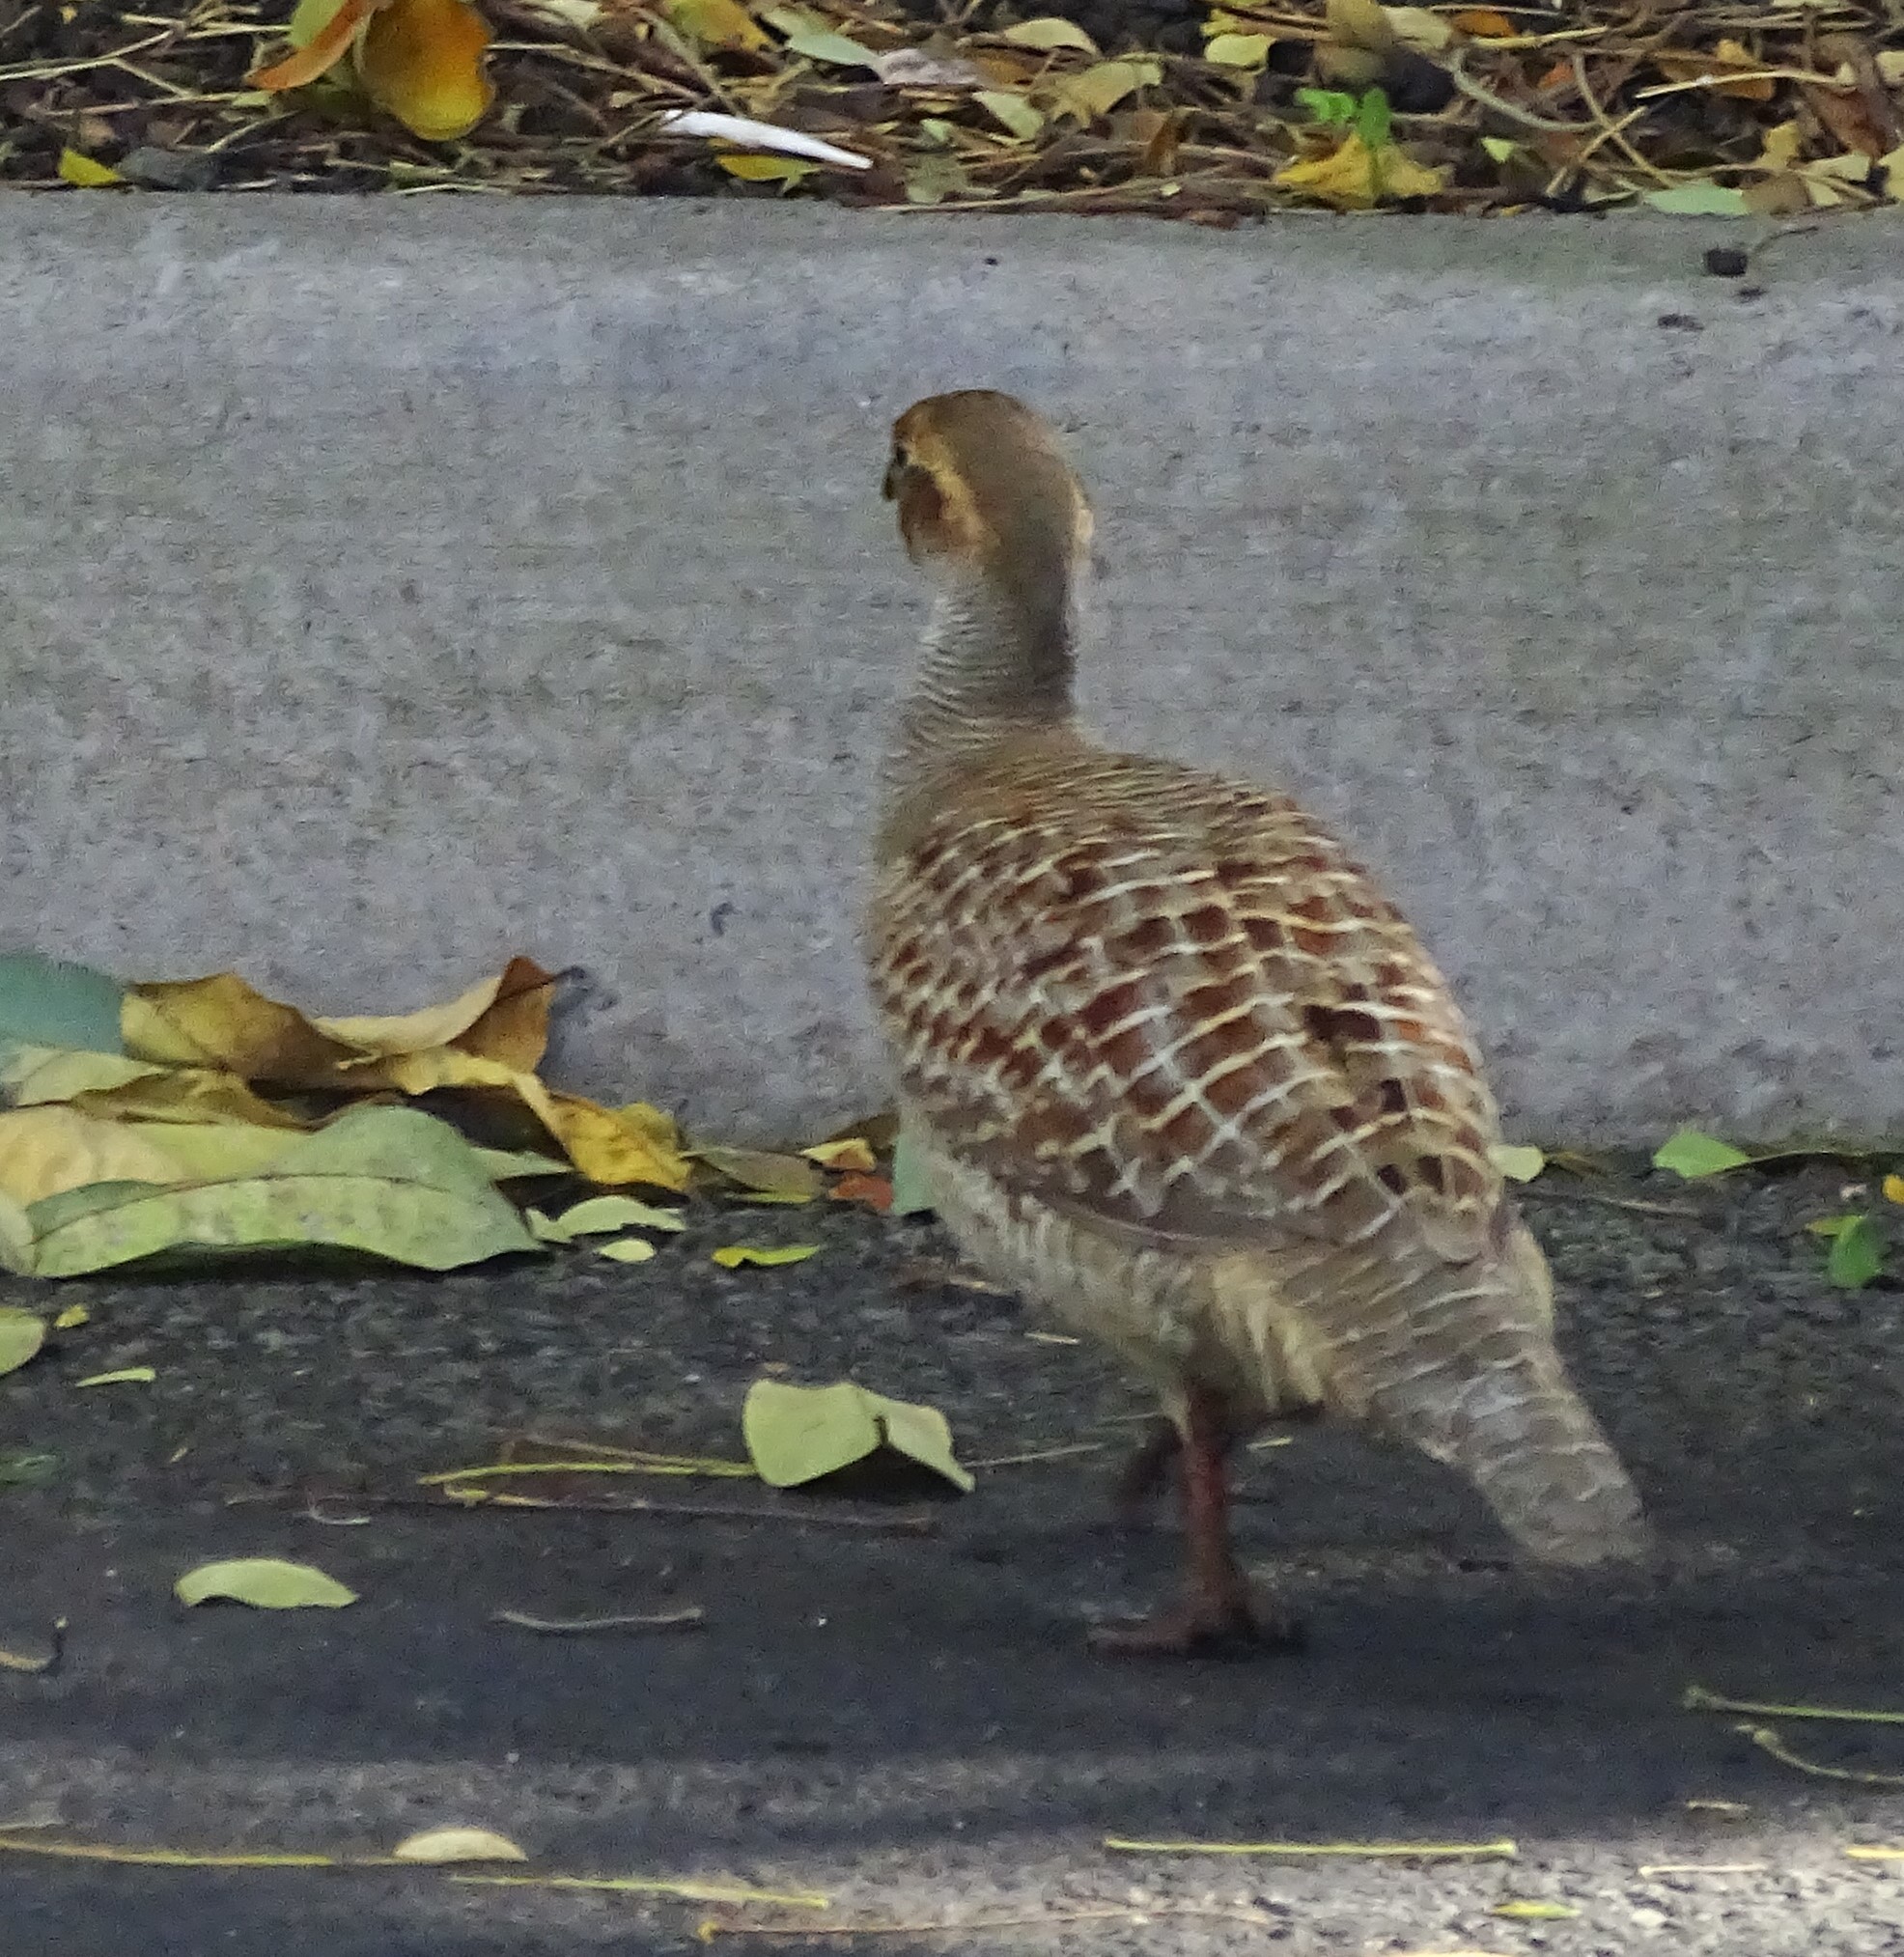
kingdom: Animalia
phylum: Chordata
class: Aves
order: Galliformes
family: Phasianidae
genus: Ortygornis
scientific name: Ortygornis pondicerianus
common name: Grey francolin
